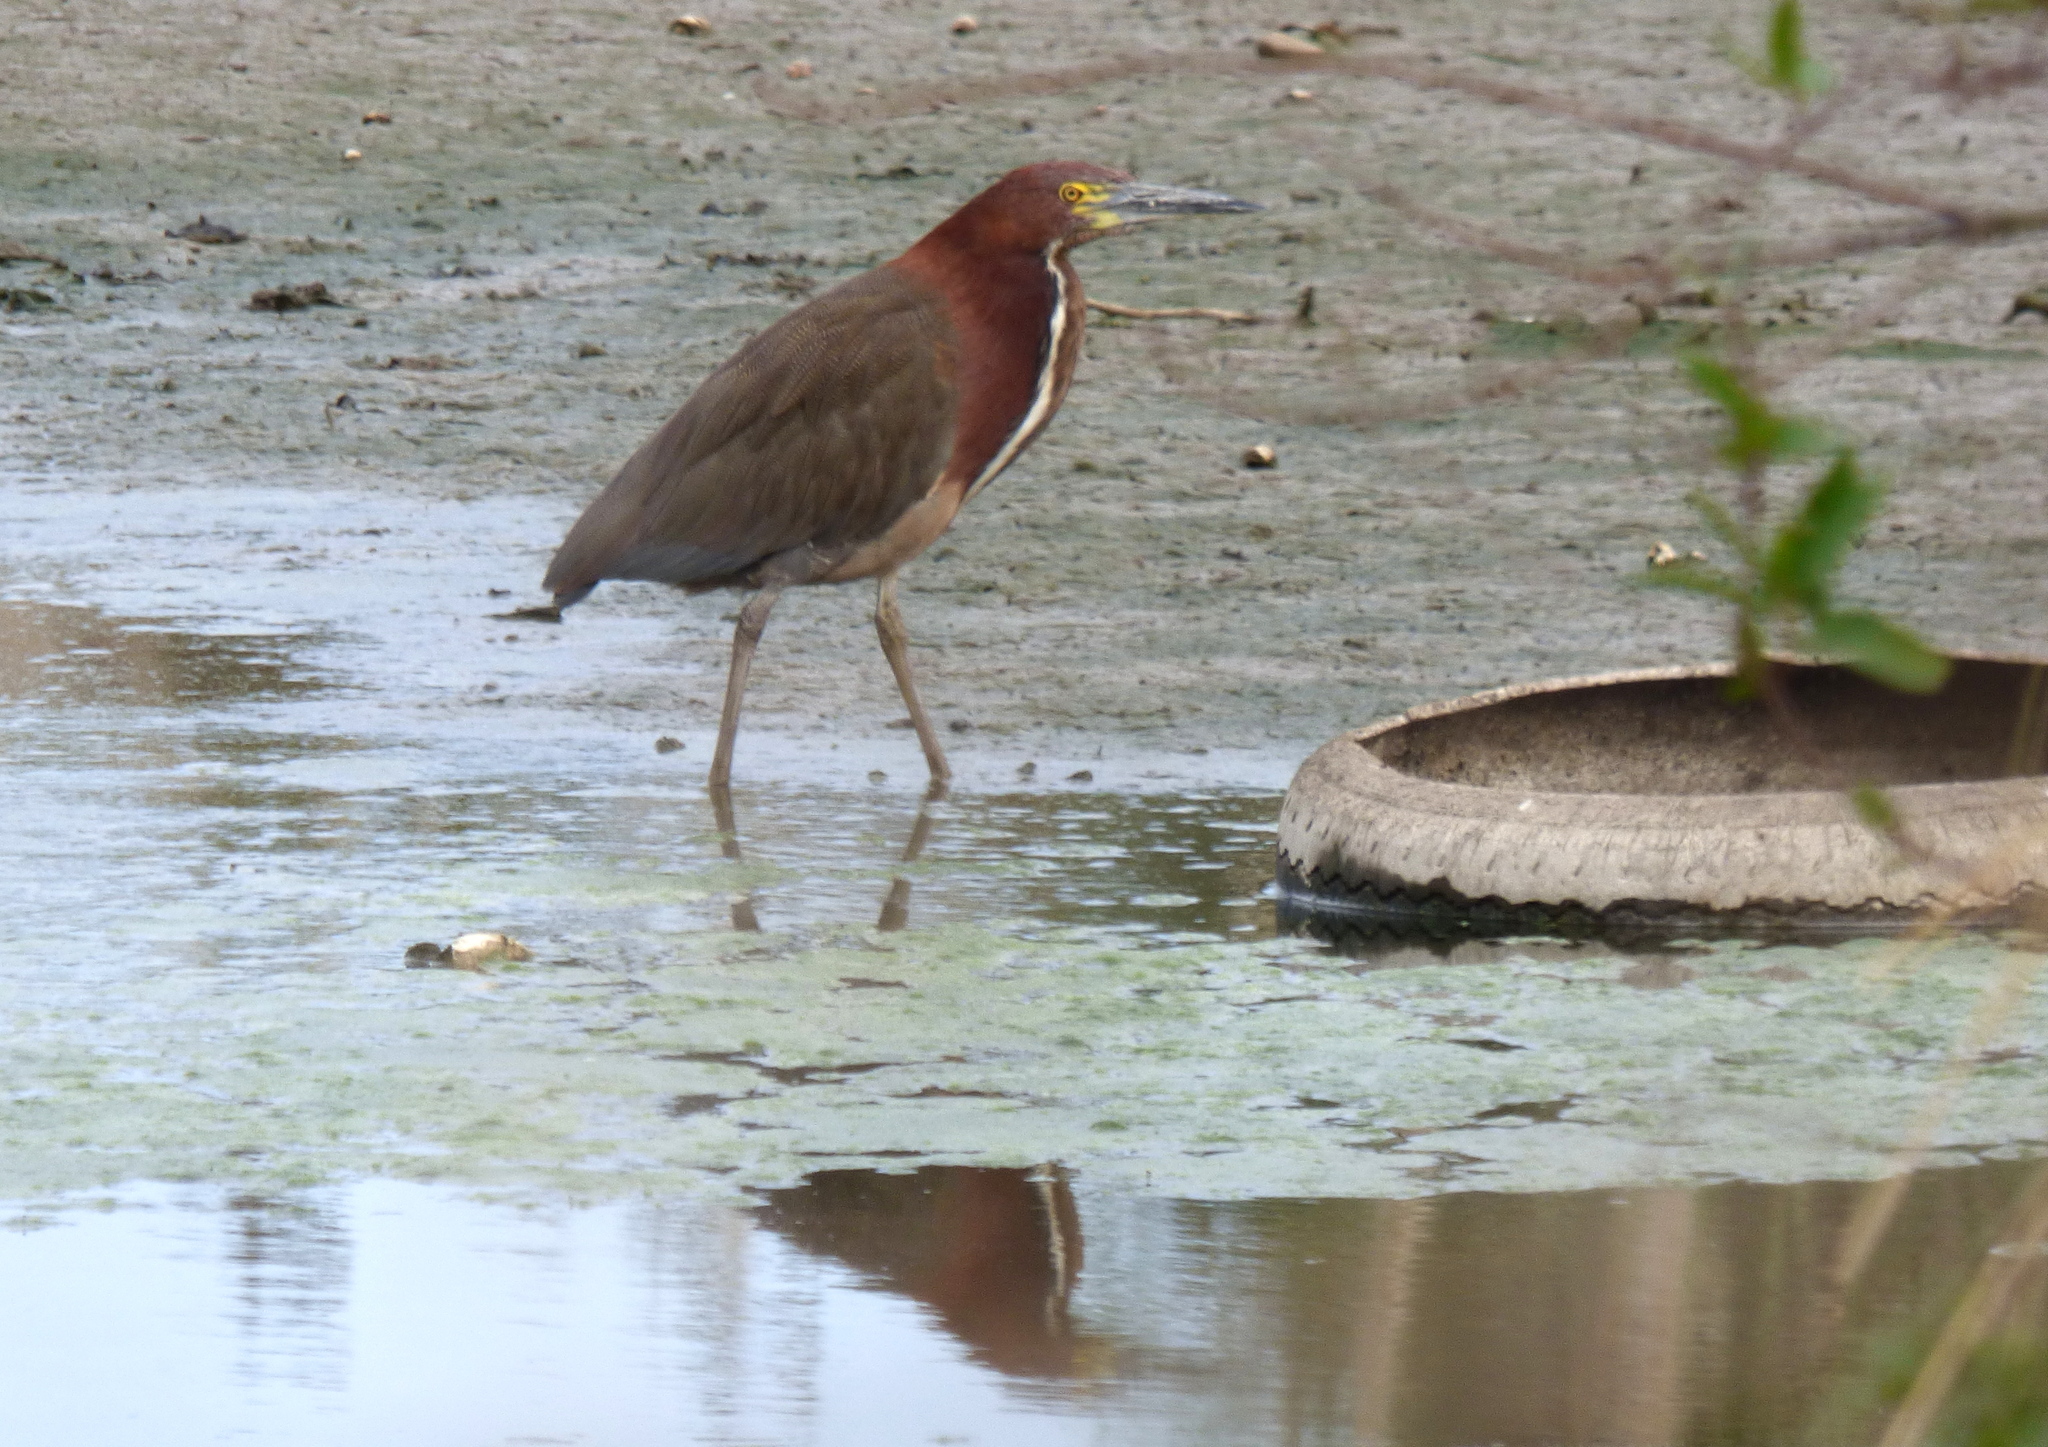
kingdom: Animalia
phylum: Chordata
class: Aves
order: Pelecaniformes
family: Ardeidae
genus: Tigrisoma
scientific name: Tigrisoma lineatum
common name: Rufescent tiger-heron
